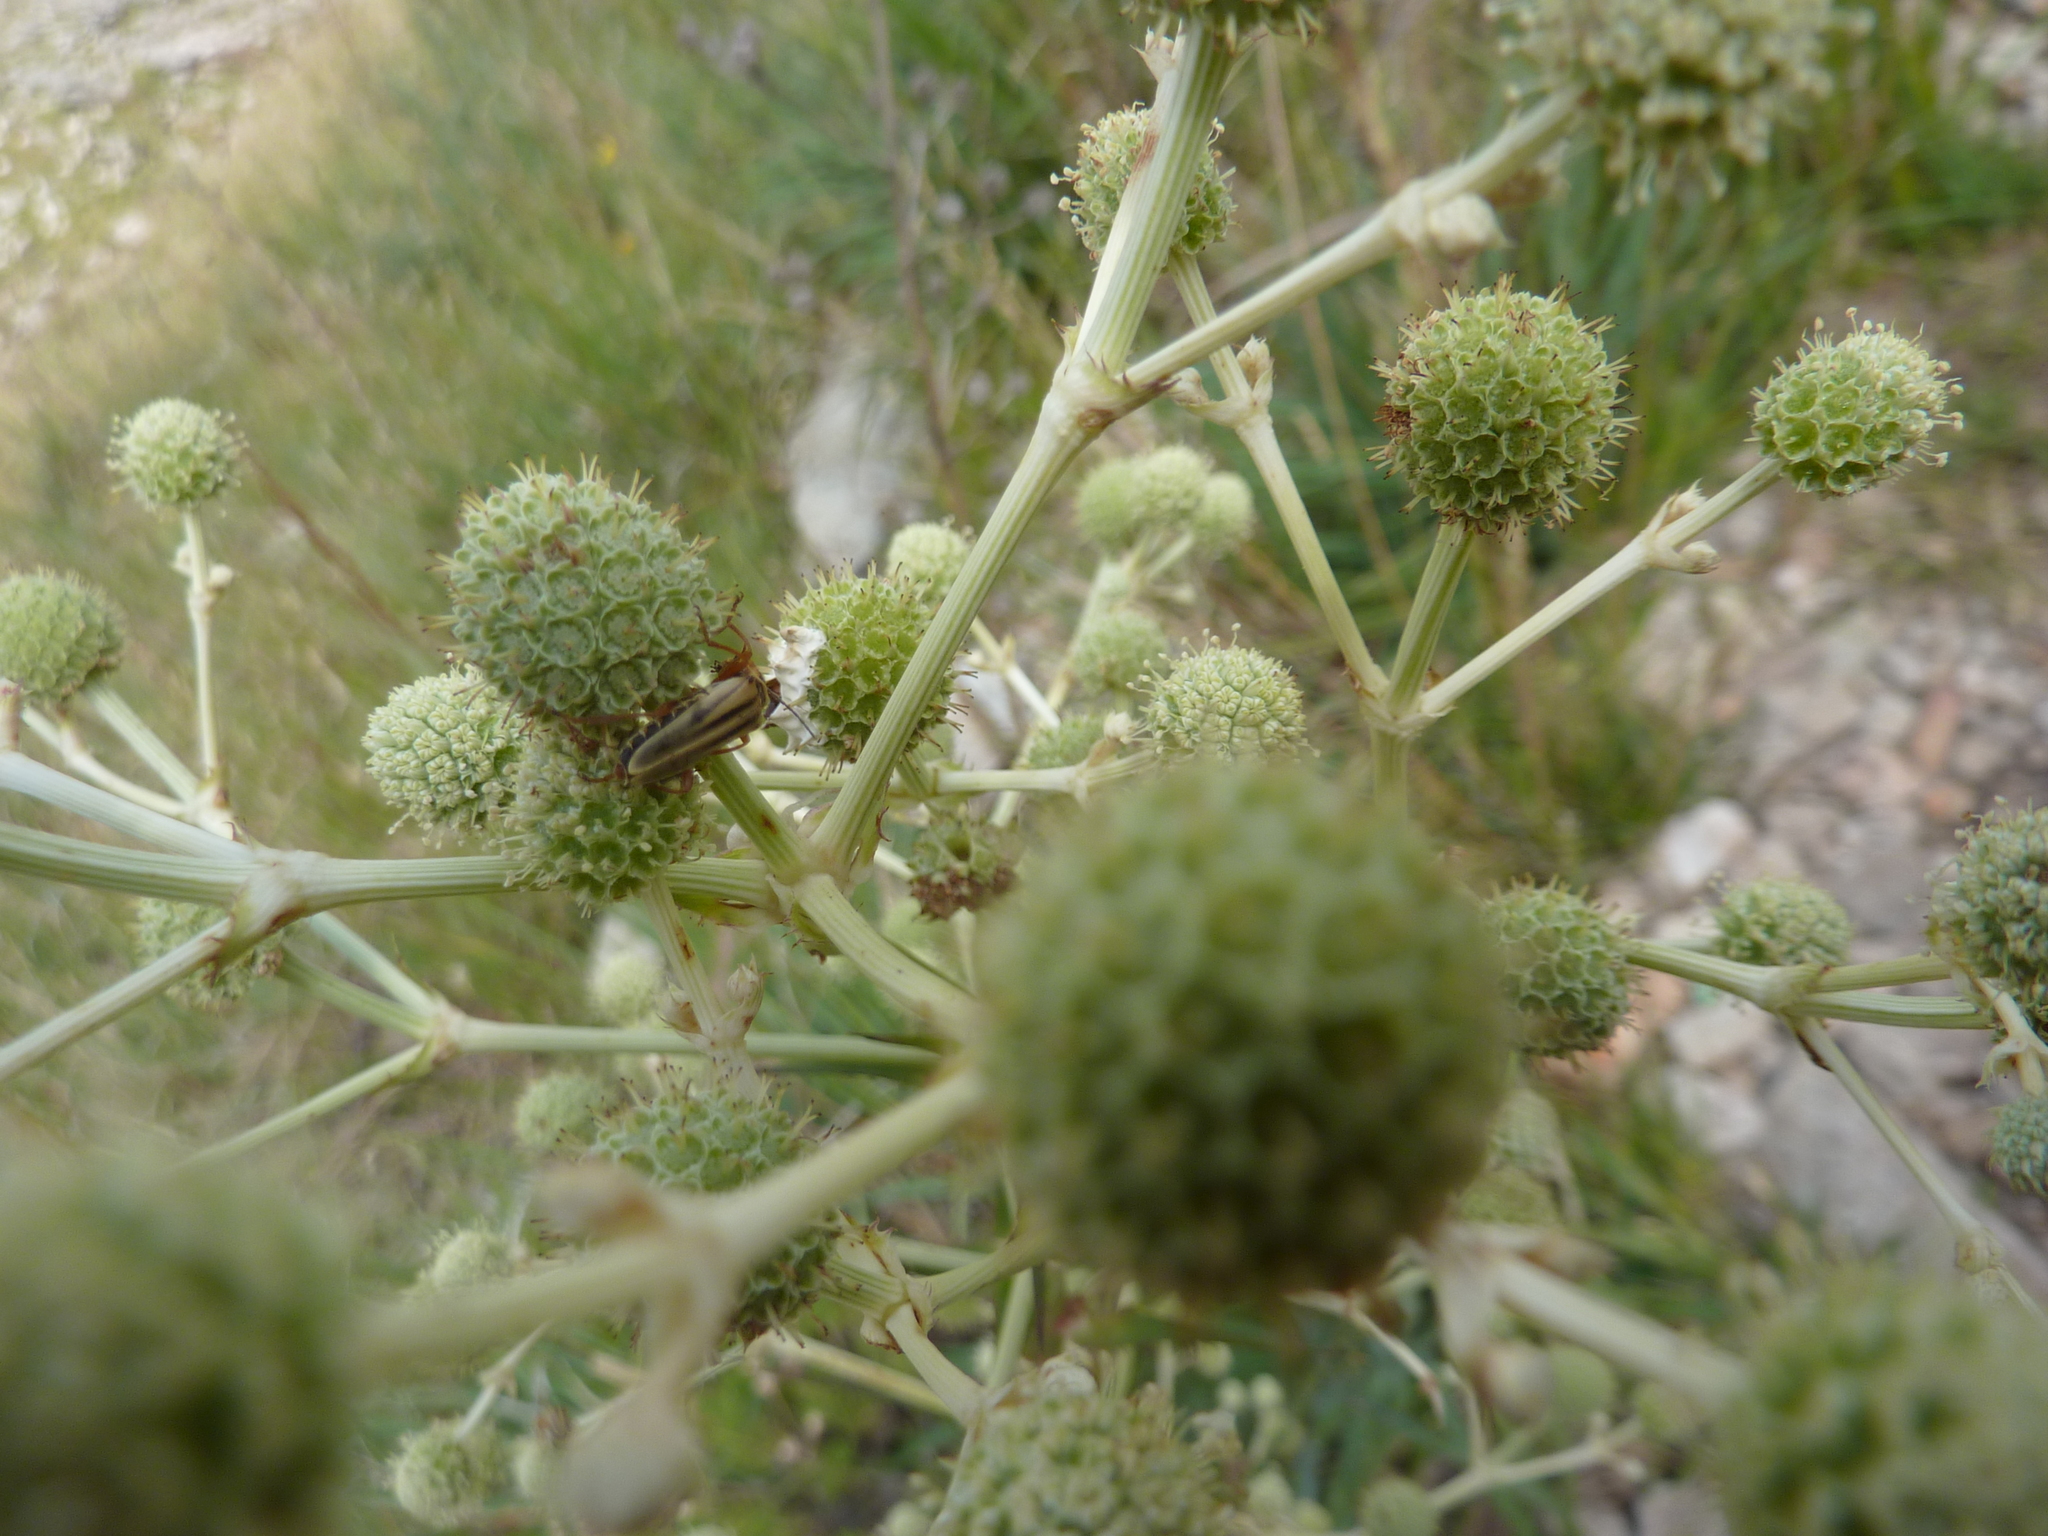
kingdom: Animalia
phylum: Arthropoda
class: Insecta
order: Coleoptera
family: Cantharidae
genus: Chauliognathus
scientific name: Chauliognathus
